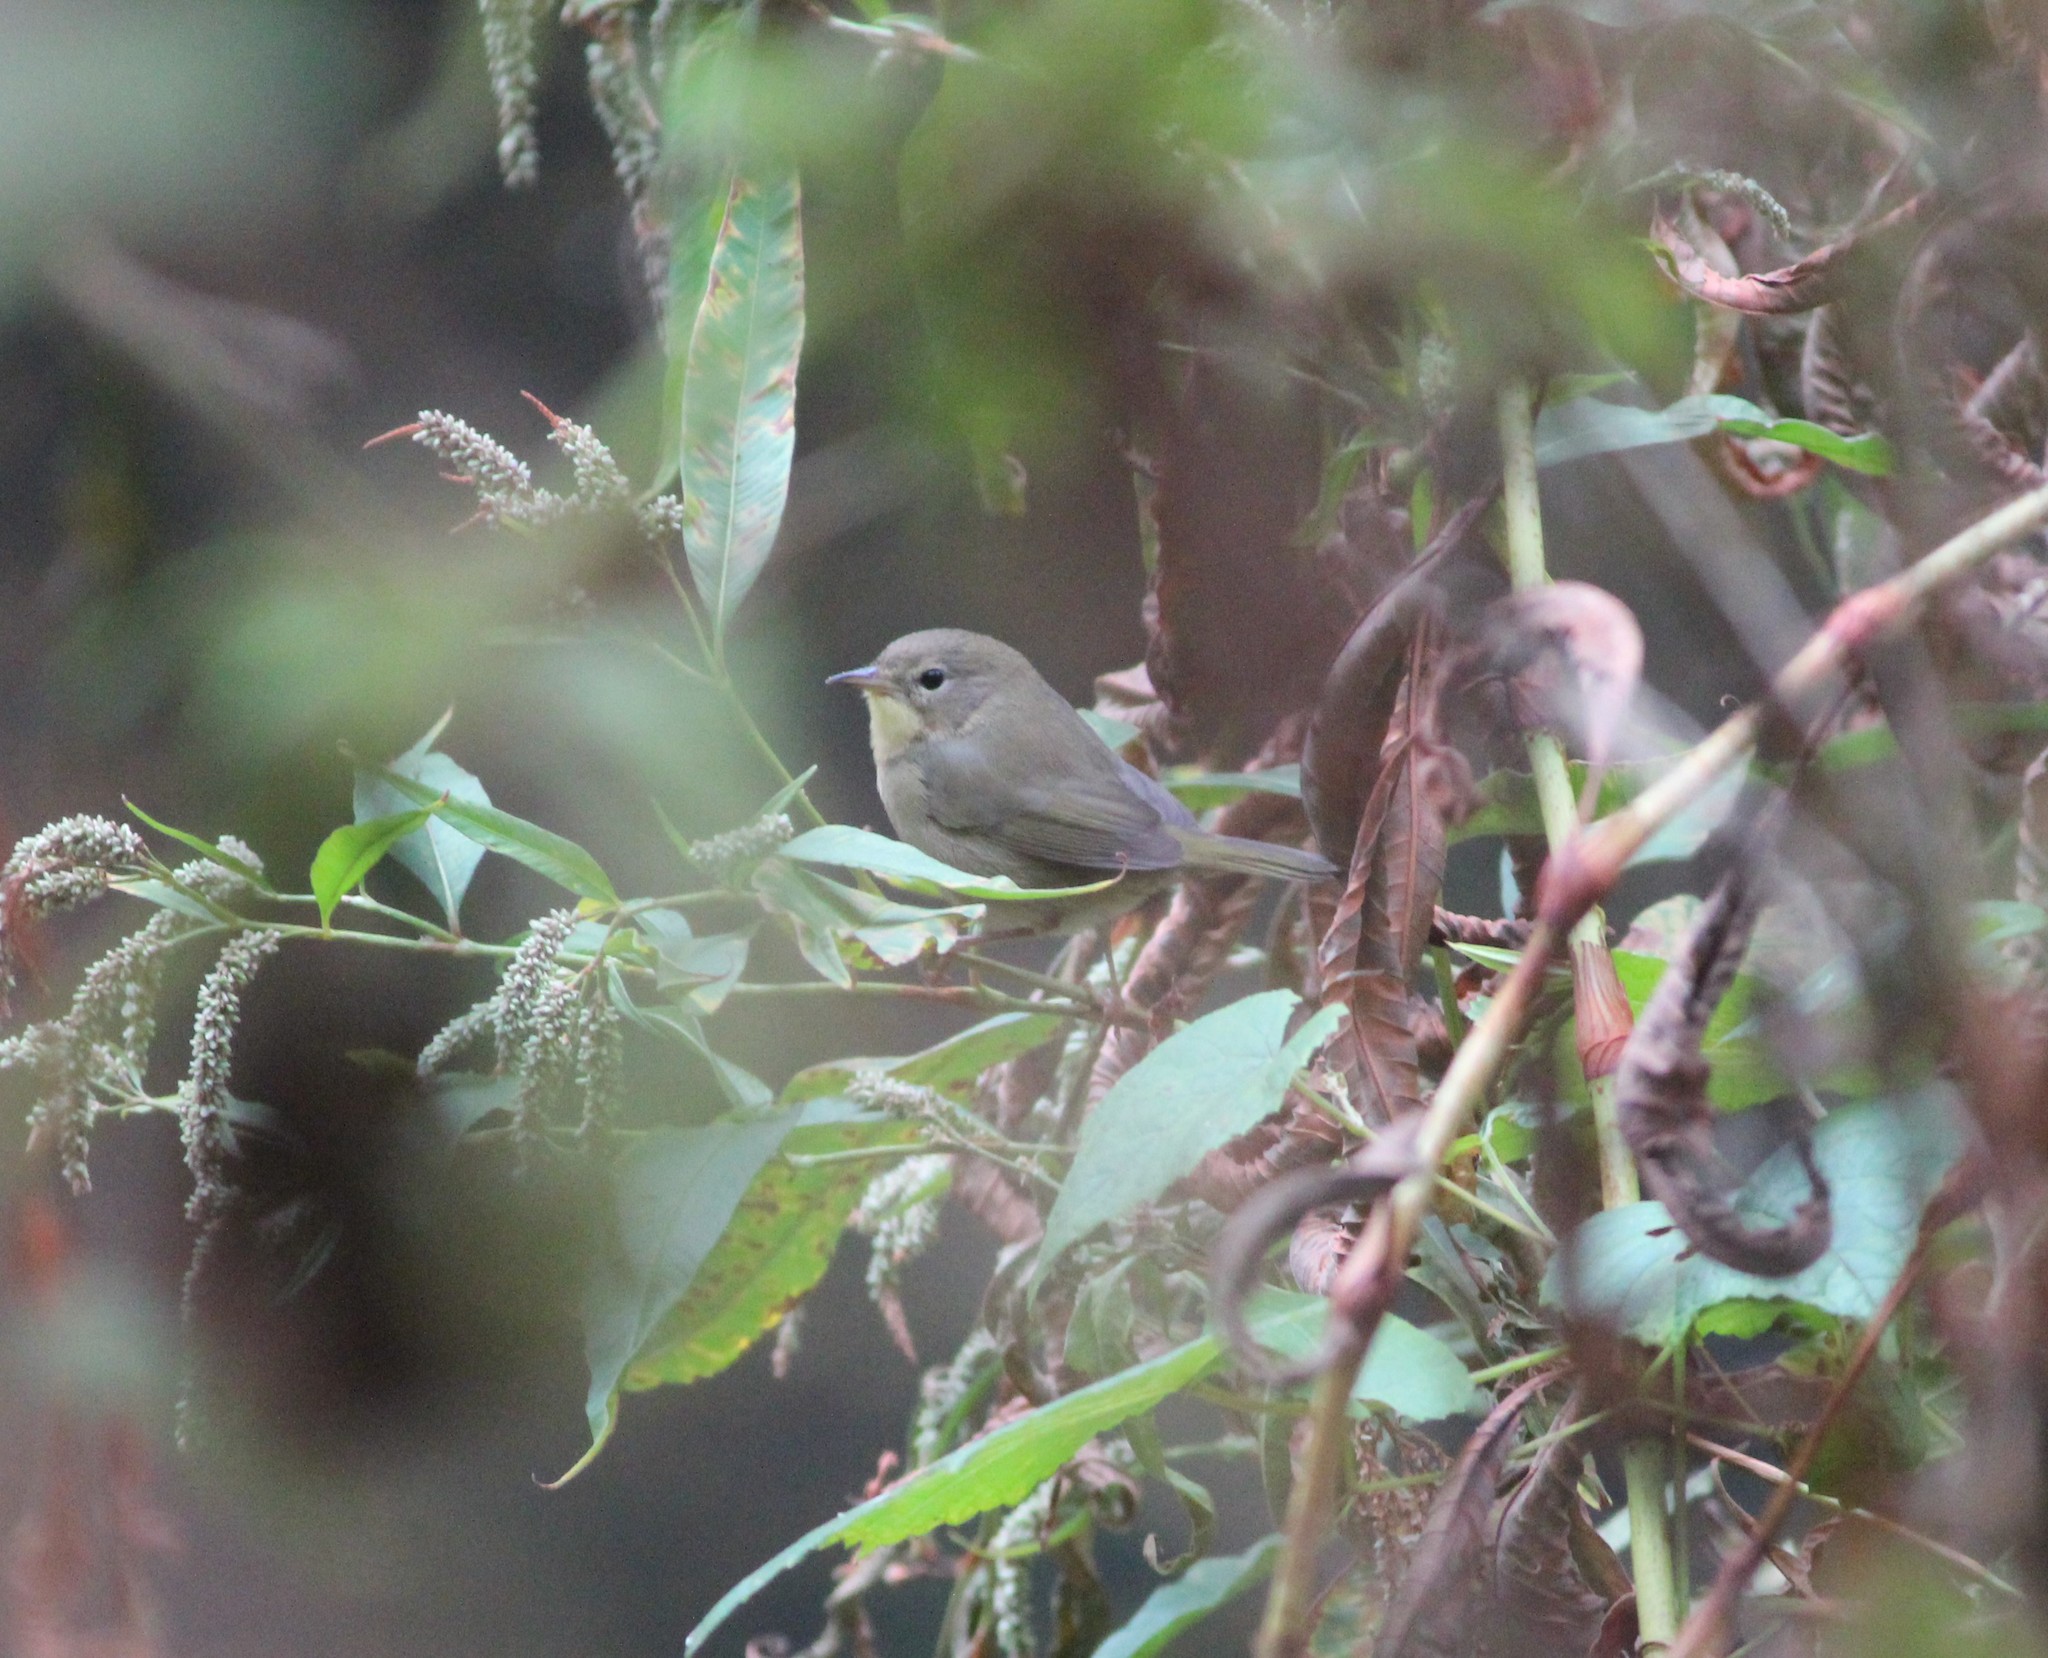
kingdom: Animalia
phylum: Chordata
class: Aves
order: Passeriformes
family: Parulidae
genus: Geothlypis
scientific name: Geothlypis trichas
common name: Common yellowthroat
